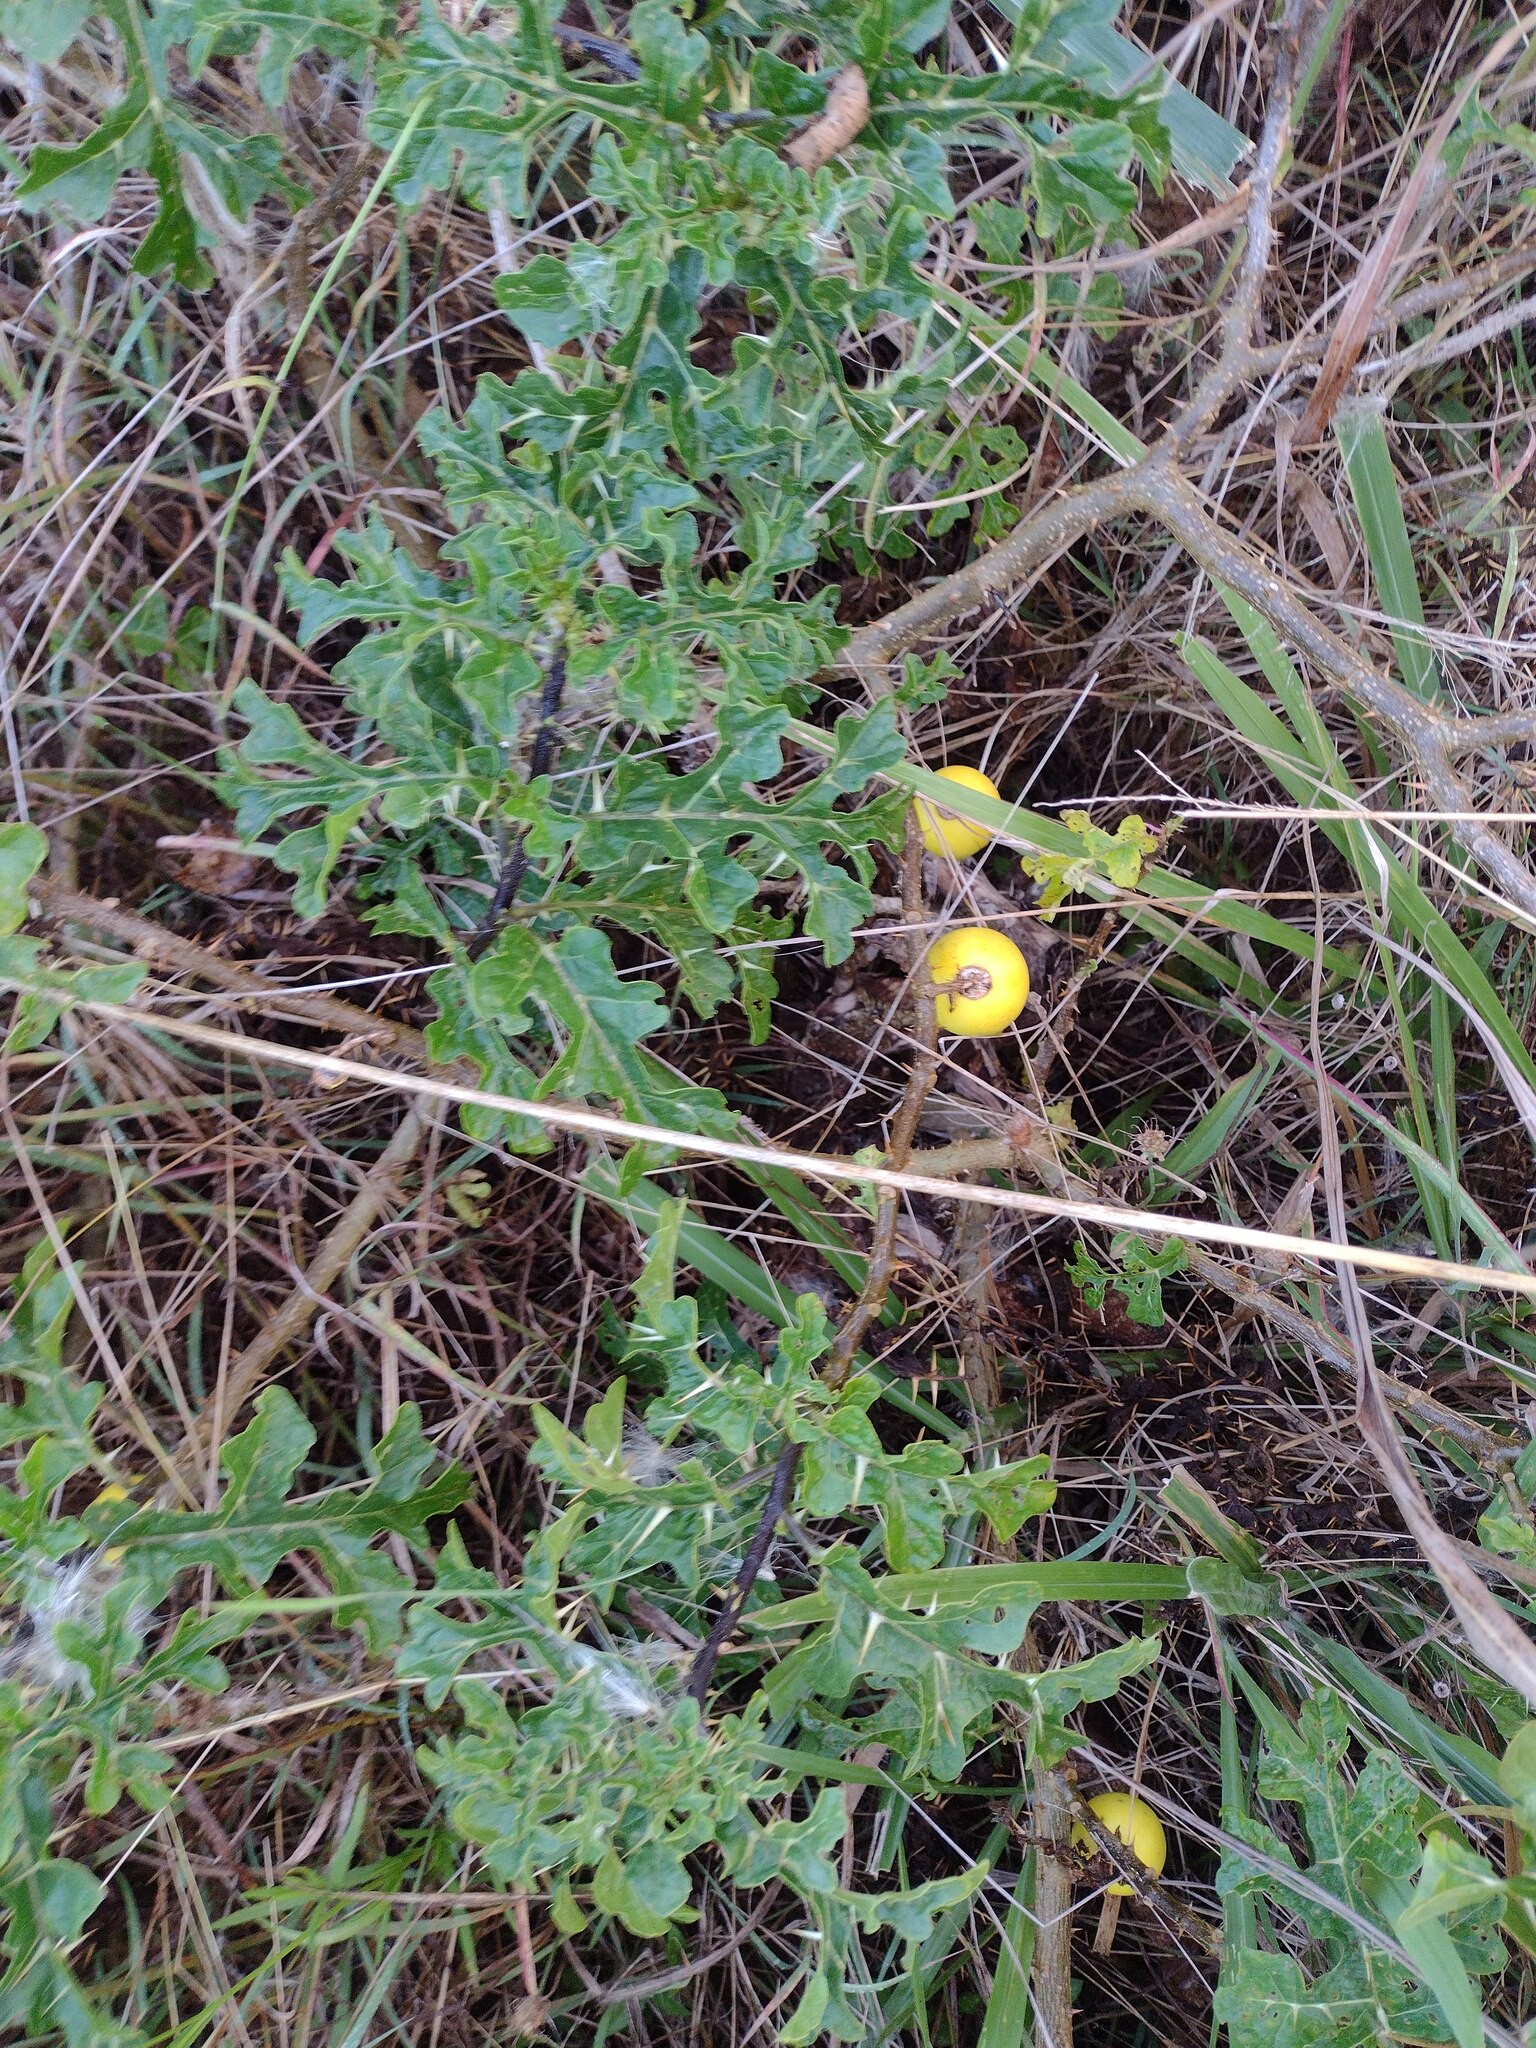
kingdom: Plantae
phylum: Tracheophyta
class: Magnoliopsida
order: Solanales
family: Solanaceae
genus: Solanum
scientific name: Solanum linnaeanum
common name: Nightshade
